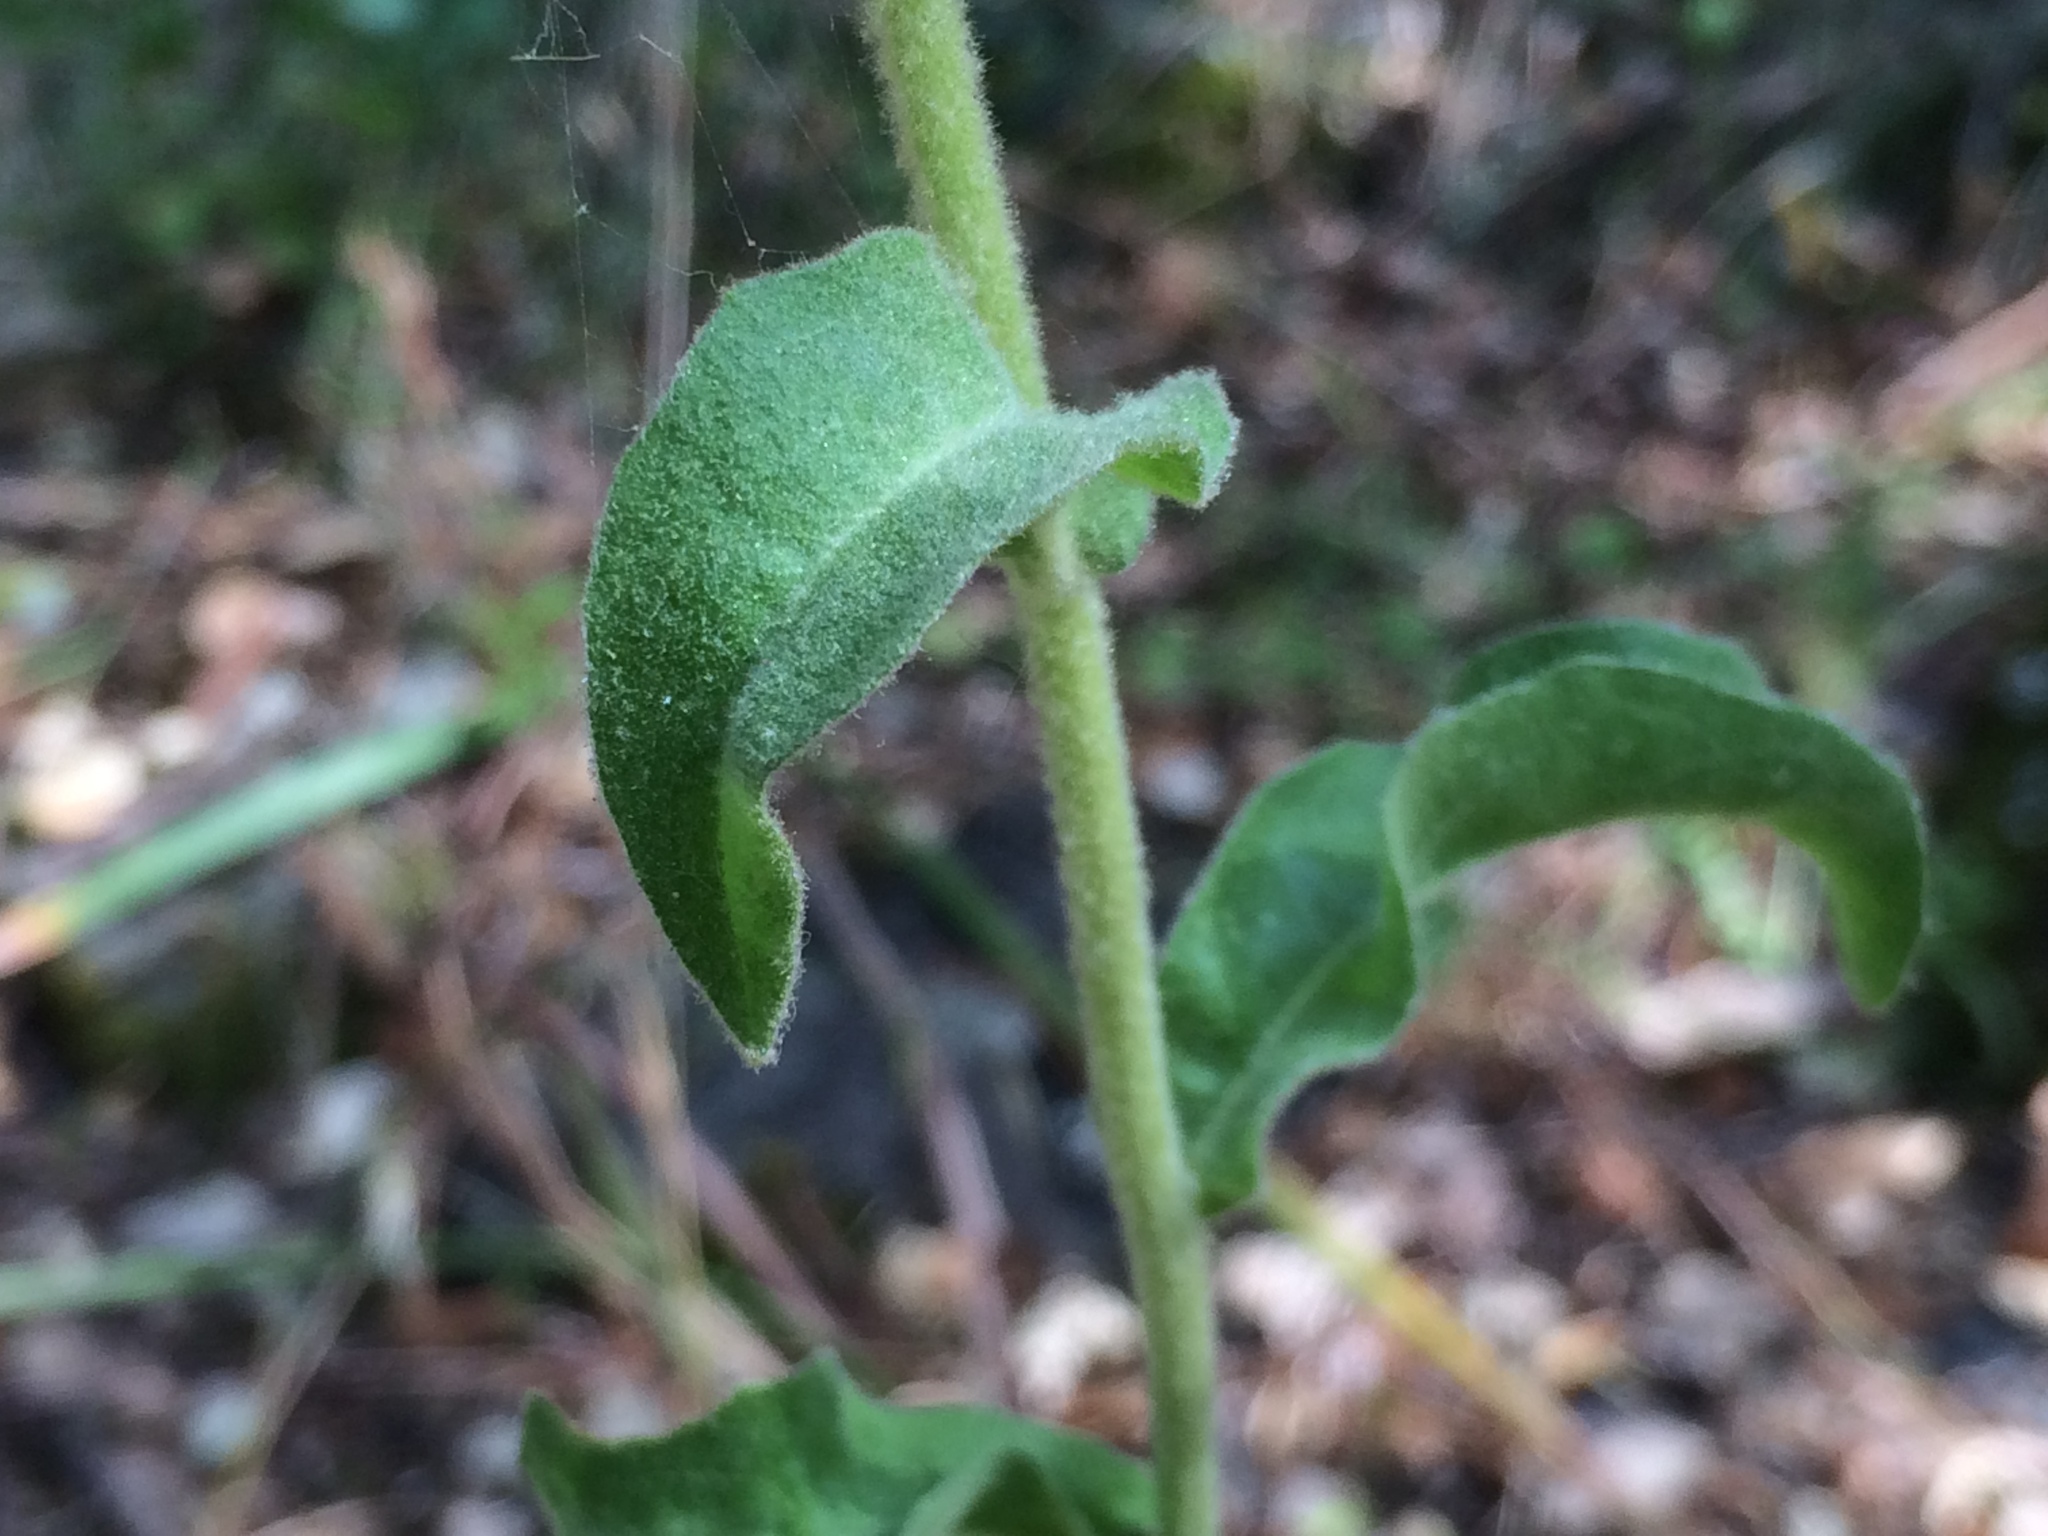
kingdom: Plantae
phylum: Tracheophyta
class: Magnoliopsida
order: Asterales
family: Asteraceae
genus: Andryala
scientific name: Andryala integrifolia
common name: Common andryala
